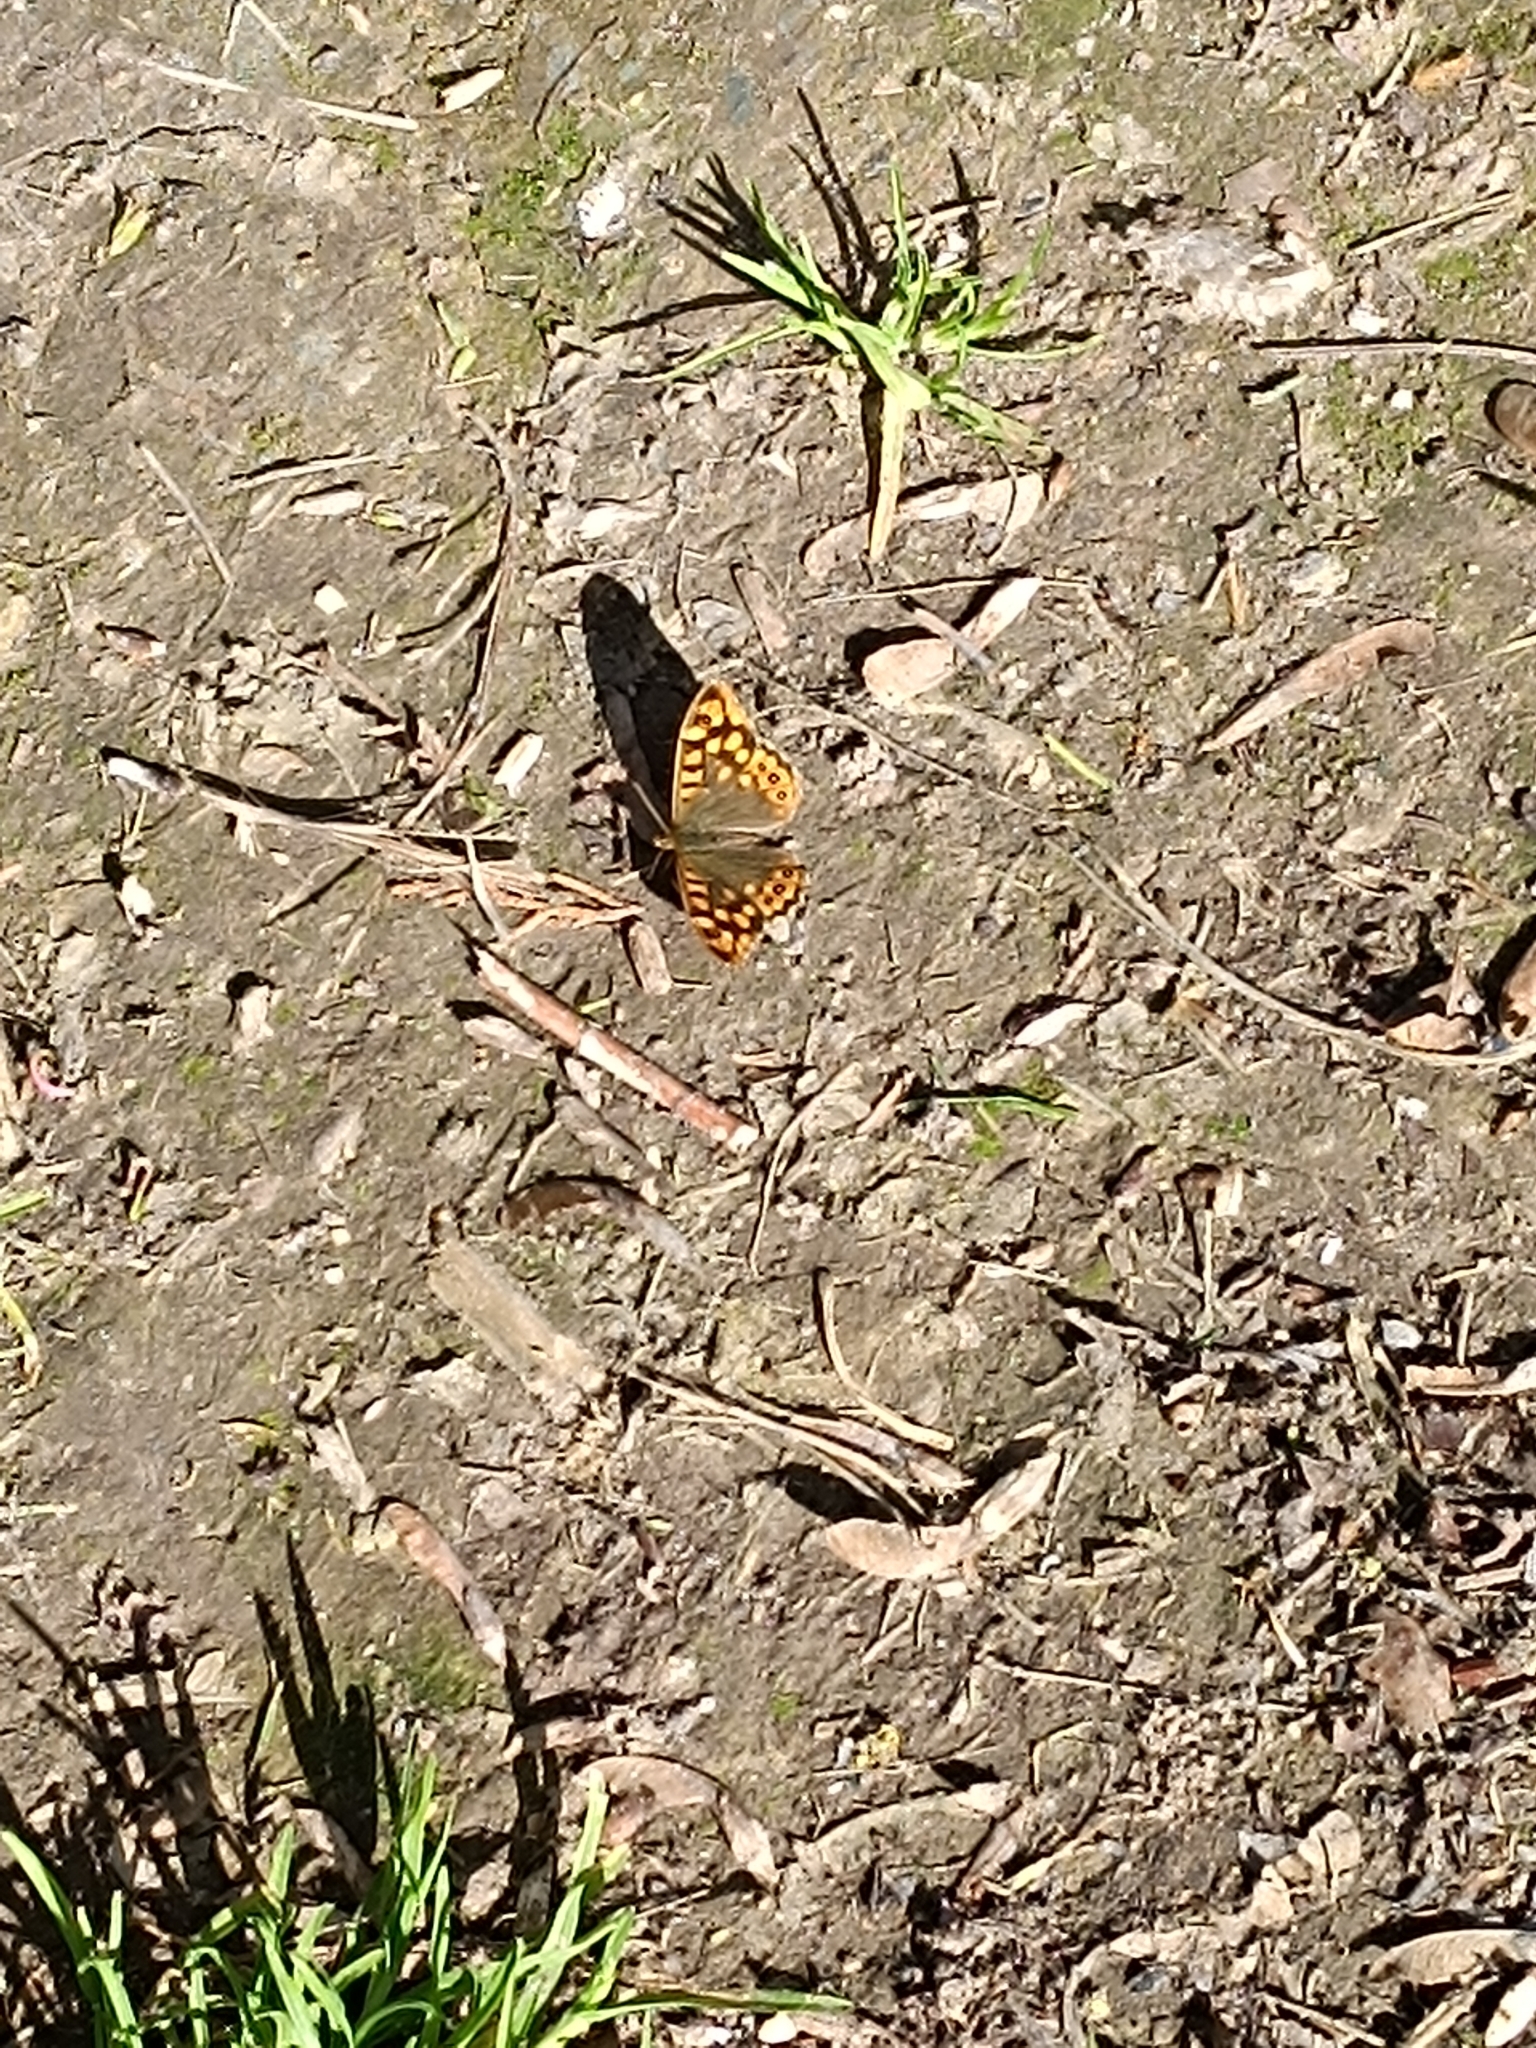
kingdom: Animalia
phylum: Arthropoda
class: Insecta
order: Lepidoptera
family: Nymphalidae
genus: Pararge
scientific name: Pararge aegeria
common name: Speckled wood
